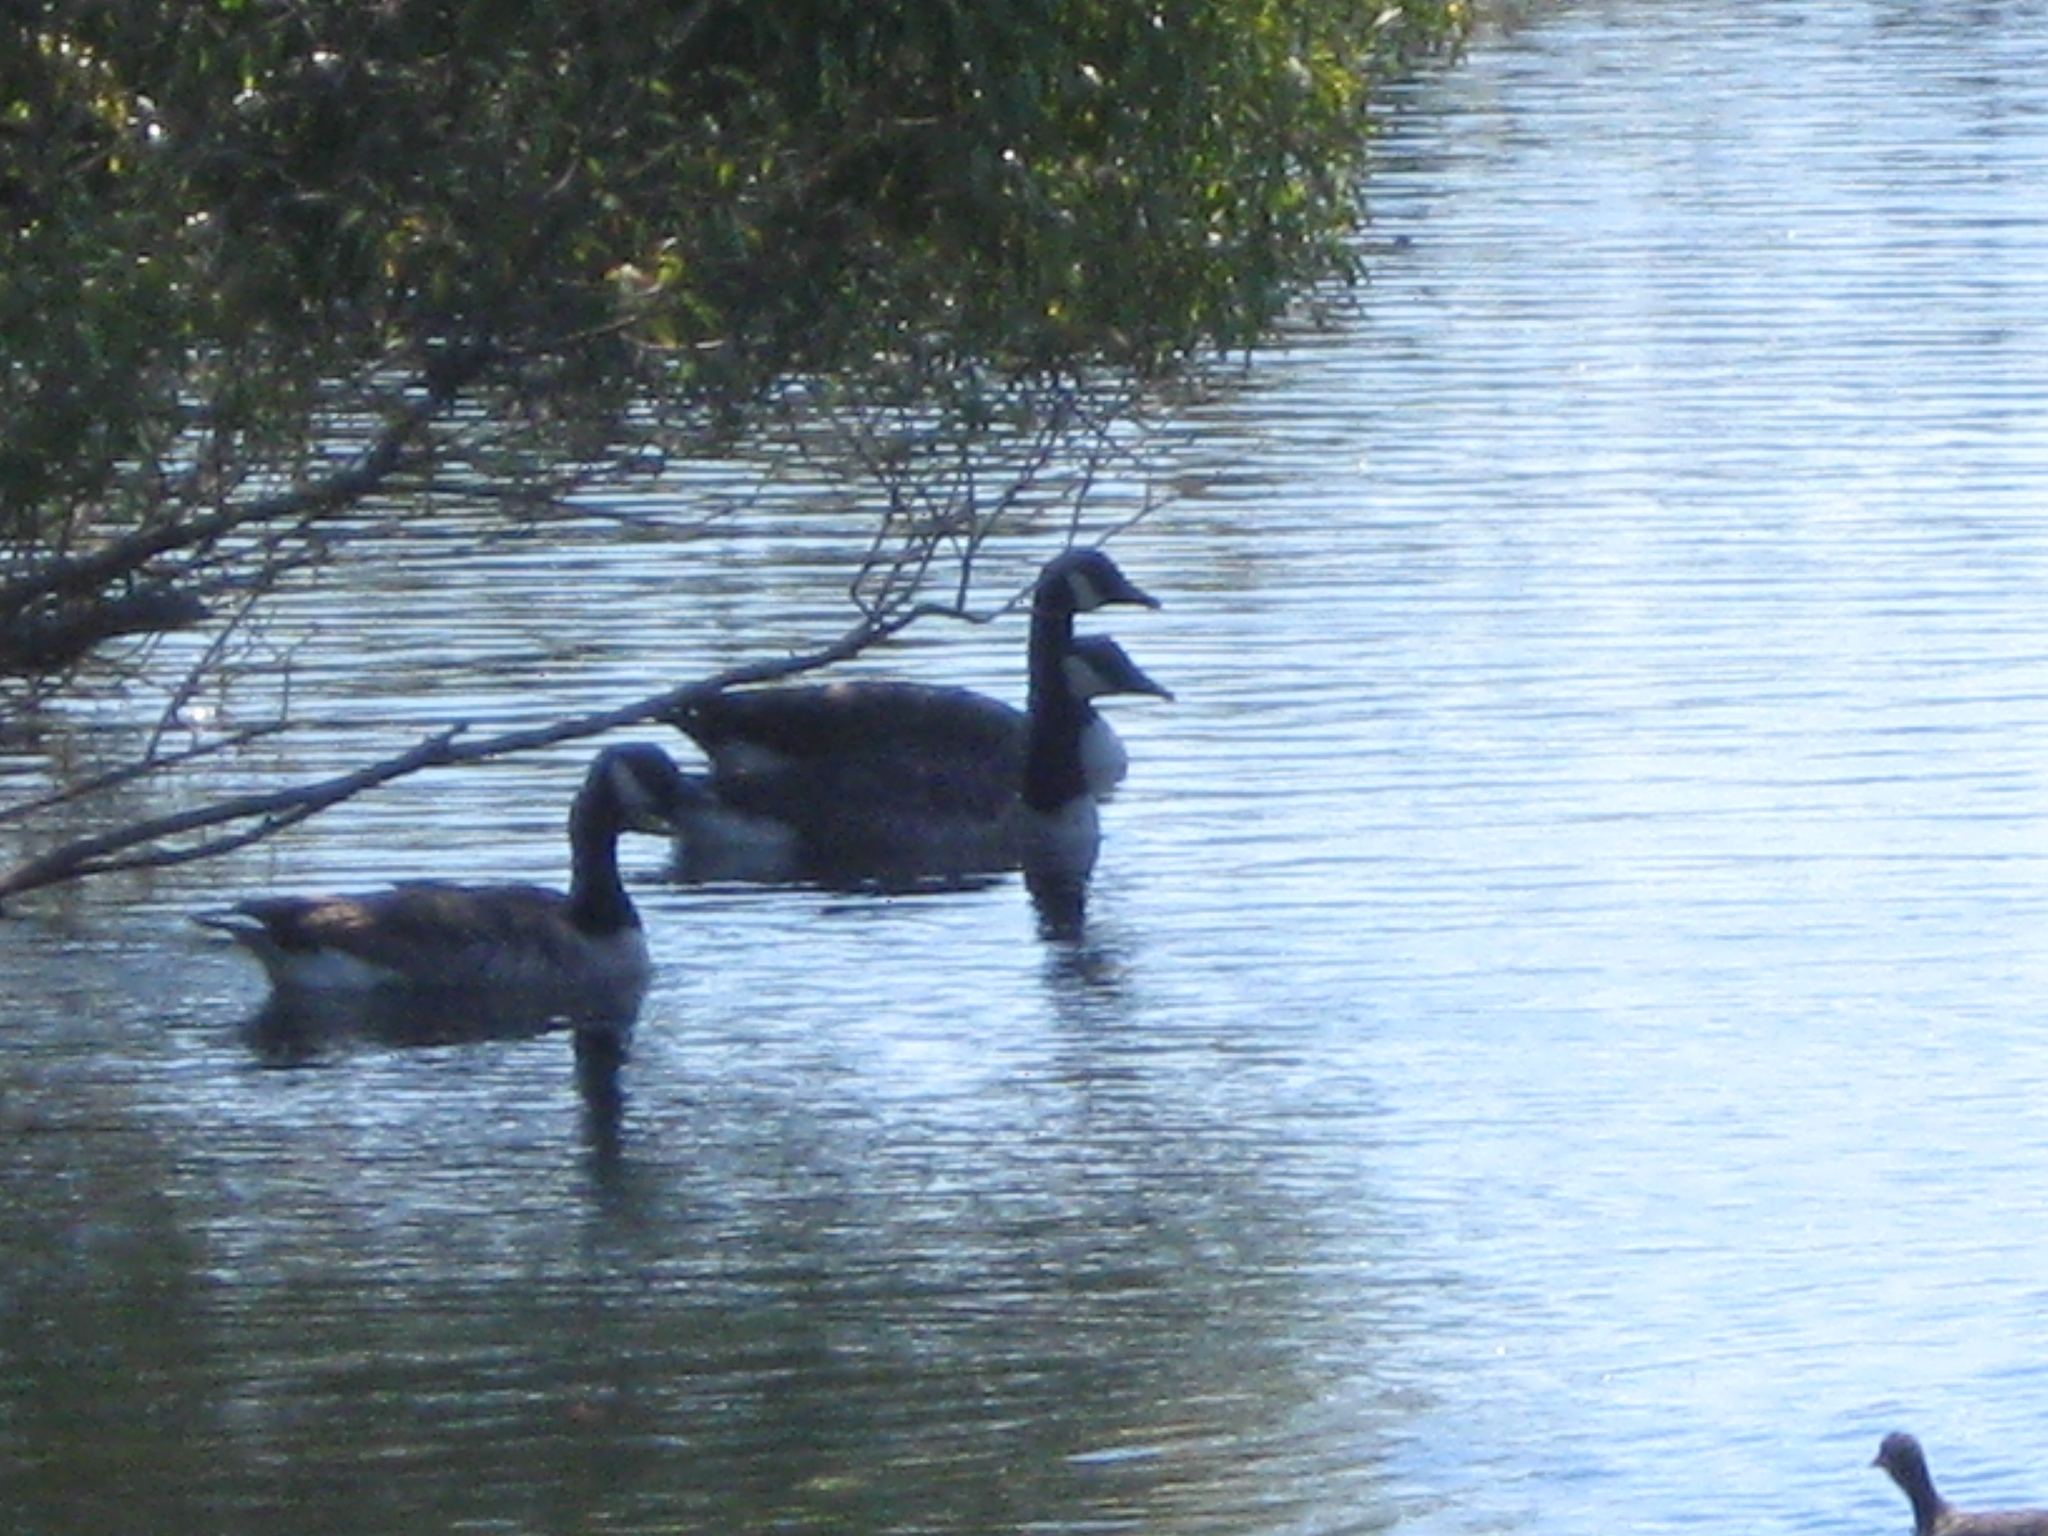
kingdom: Animalia
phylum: Chordata
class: Aves
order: Anseriformes
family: Anatidae
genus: Branta
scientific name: Branta canadensis
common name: Canada goose
